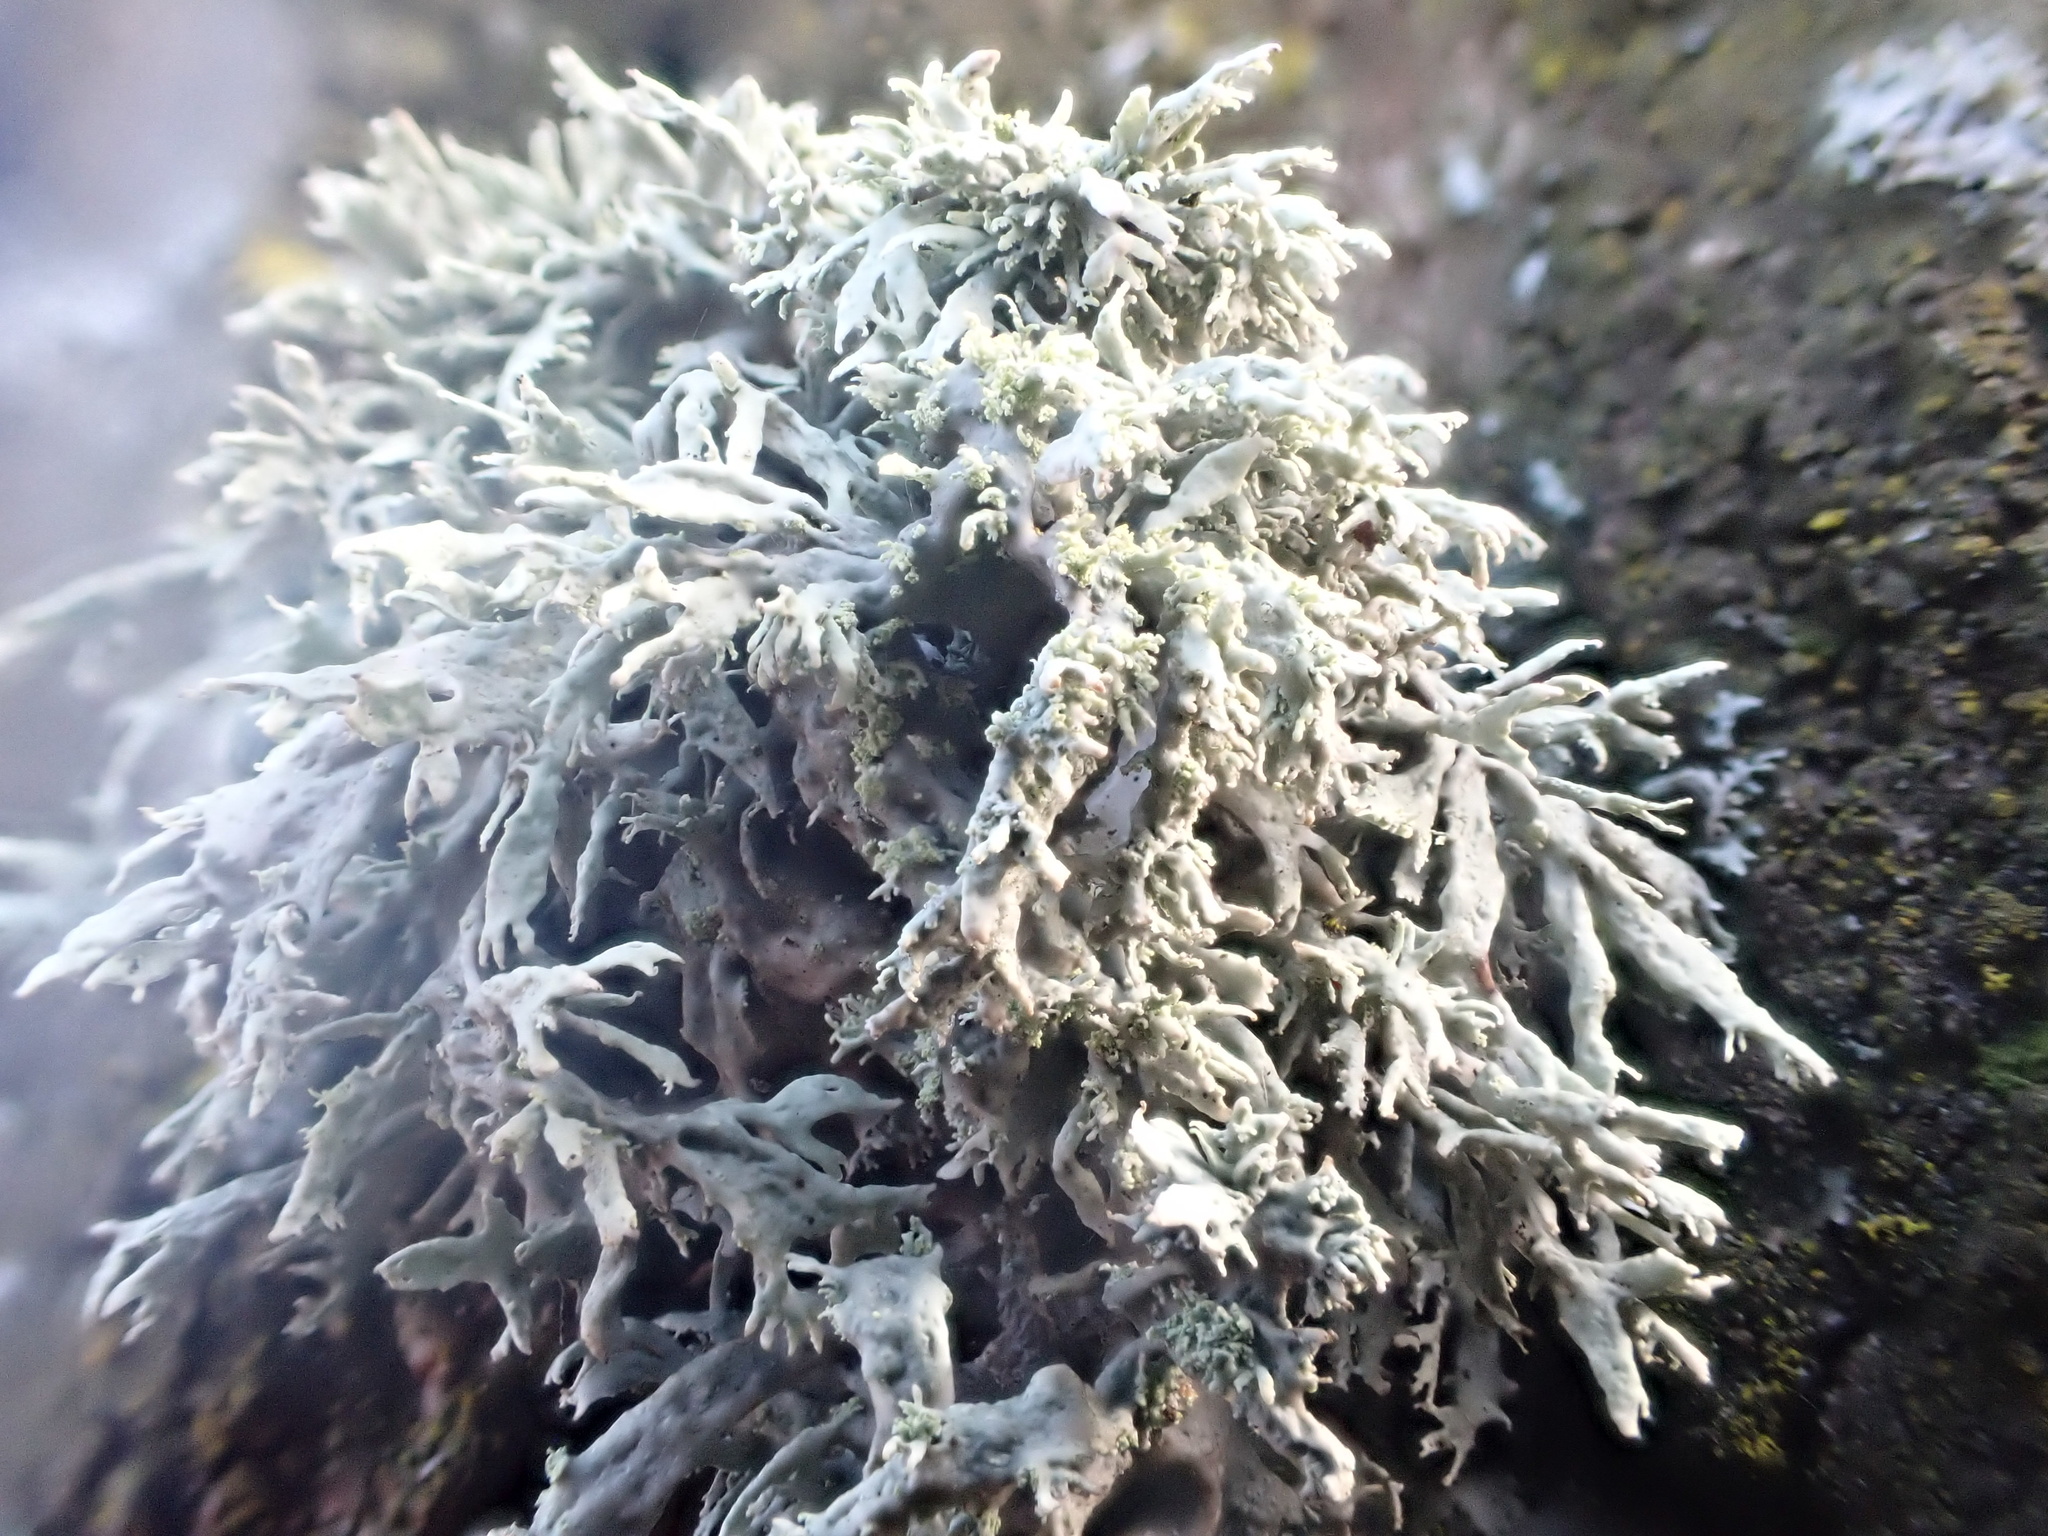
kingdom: Fungi
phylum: Ascomycota
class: Lecanoromycetes
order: Lecanorales
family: Ramalinaceae
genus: Ramalina
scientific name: Ramalina farinacea
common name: Farinose cartilage lichen
